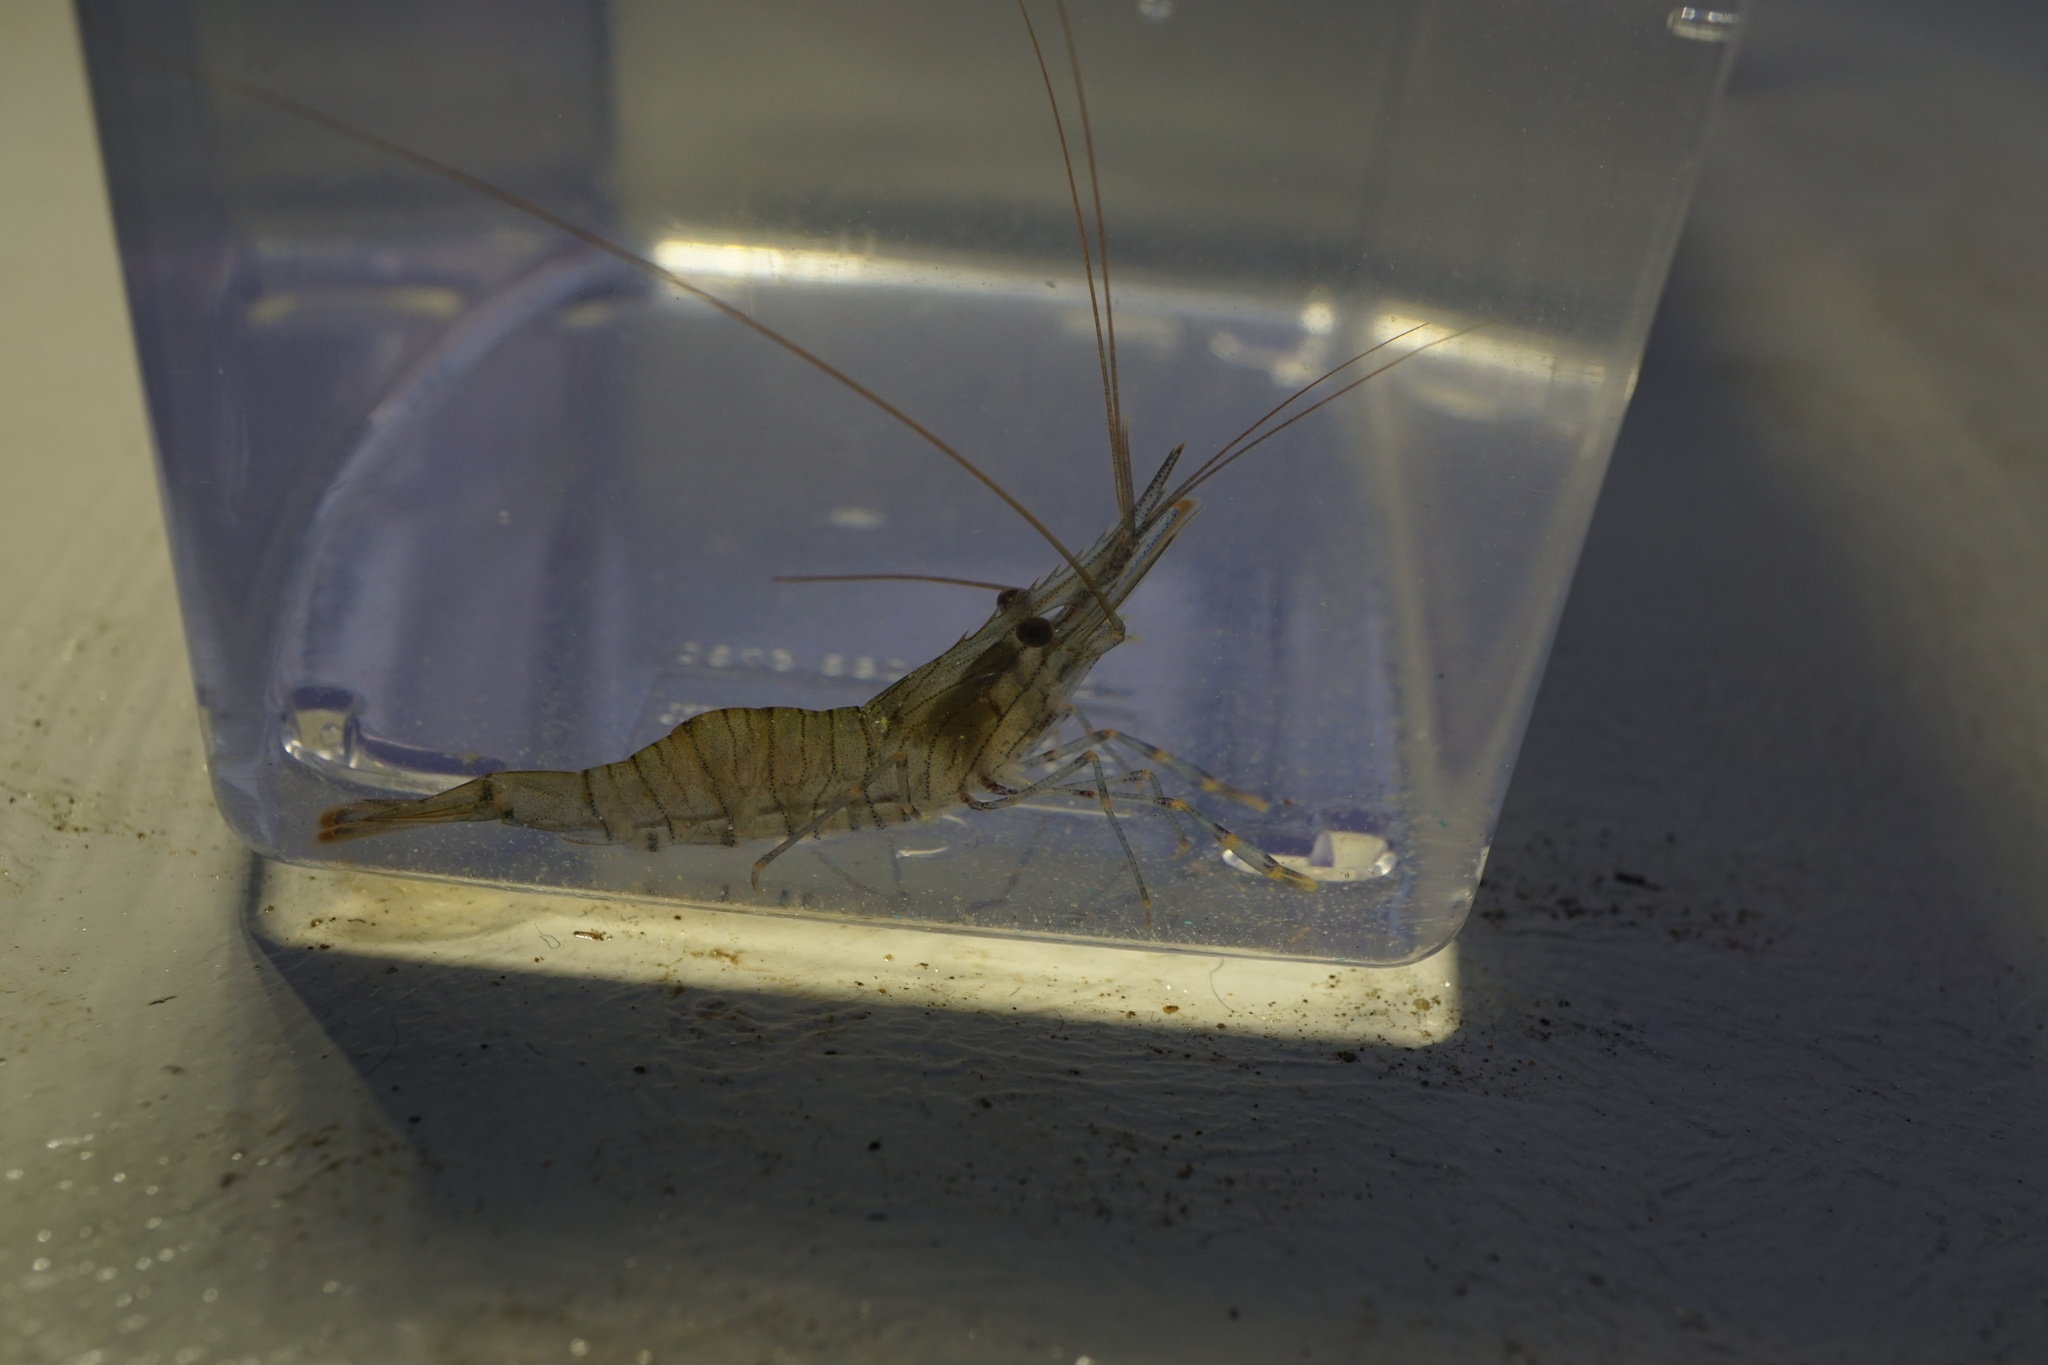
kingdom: Animalia
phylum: Arthropoda
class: Malacostraca
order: Decapoda
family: Palaemonidae
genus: Palaemon
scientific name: Palaemon serratus
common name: Common prawn
